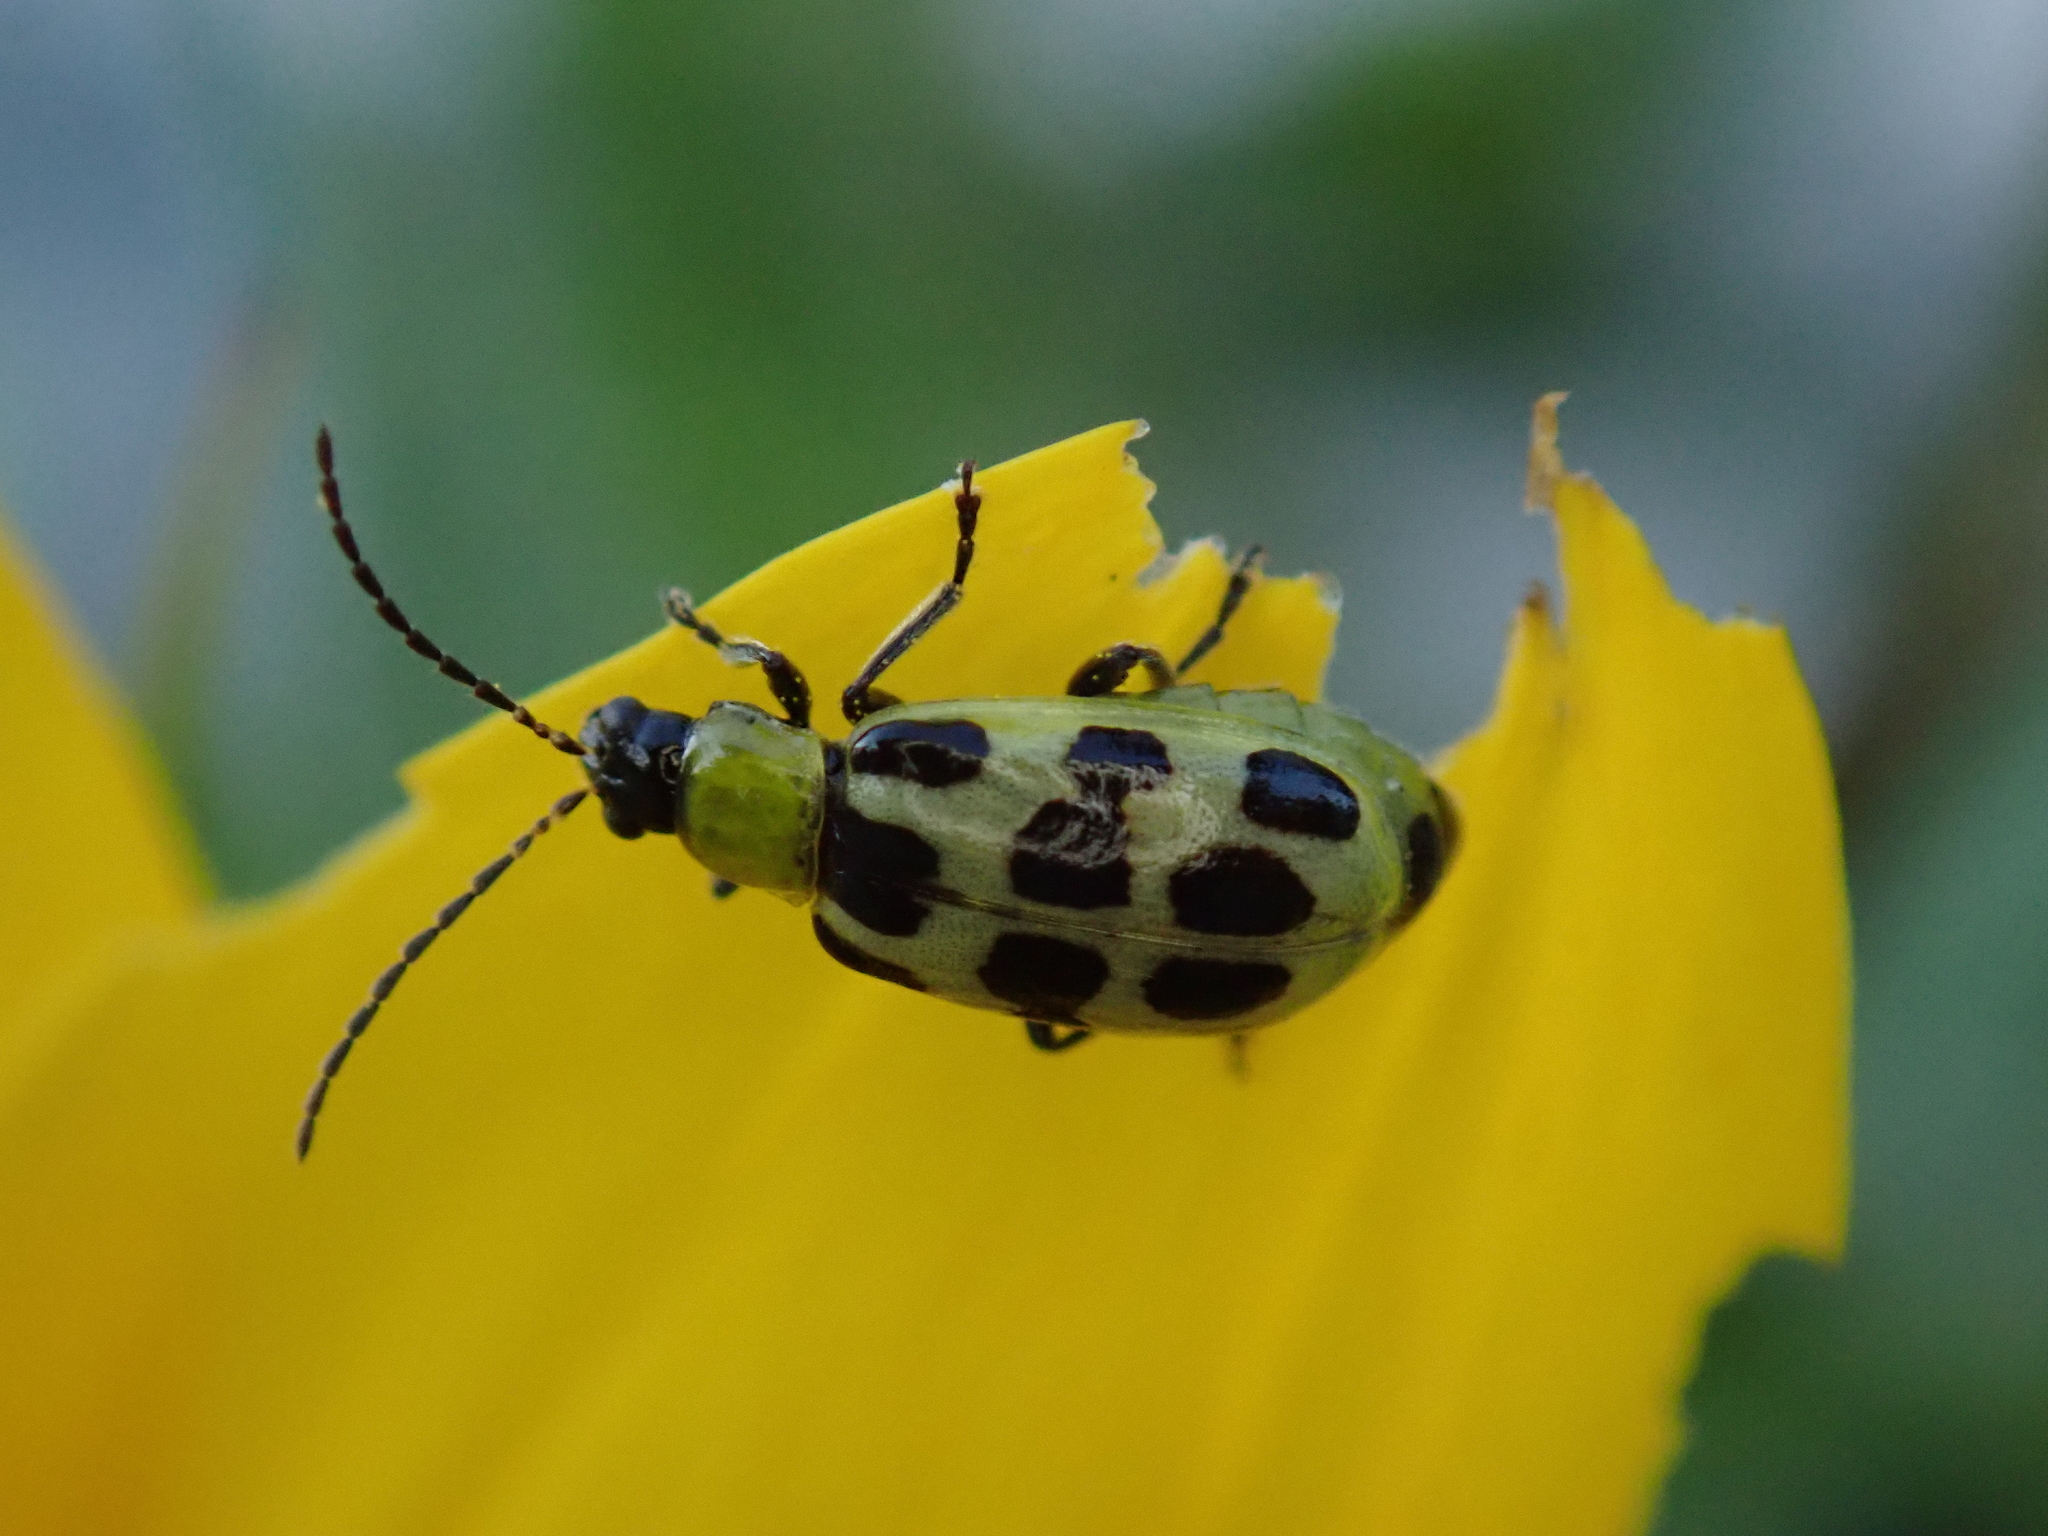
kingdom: Animalia
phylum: Arthropoda
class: Insecta
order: Coleoptera
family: Chrysomelidae
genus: Diabrotica
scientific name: Diabrotica undecimpunctata
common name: Spotted cucumber beetle
